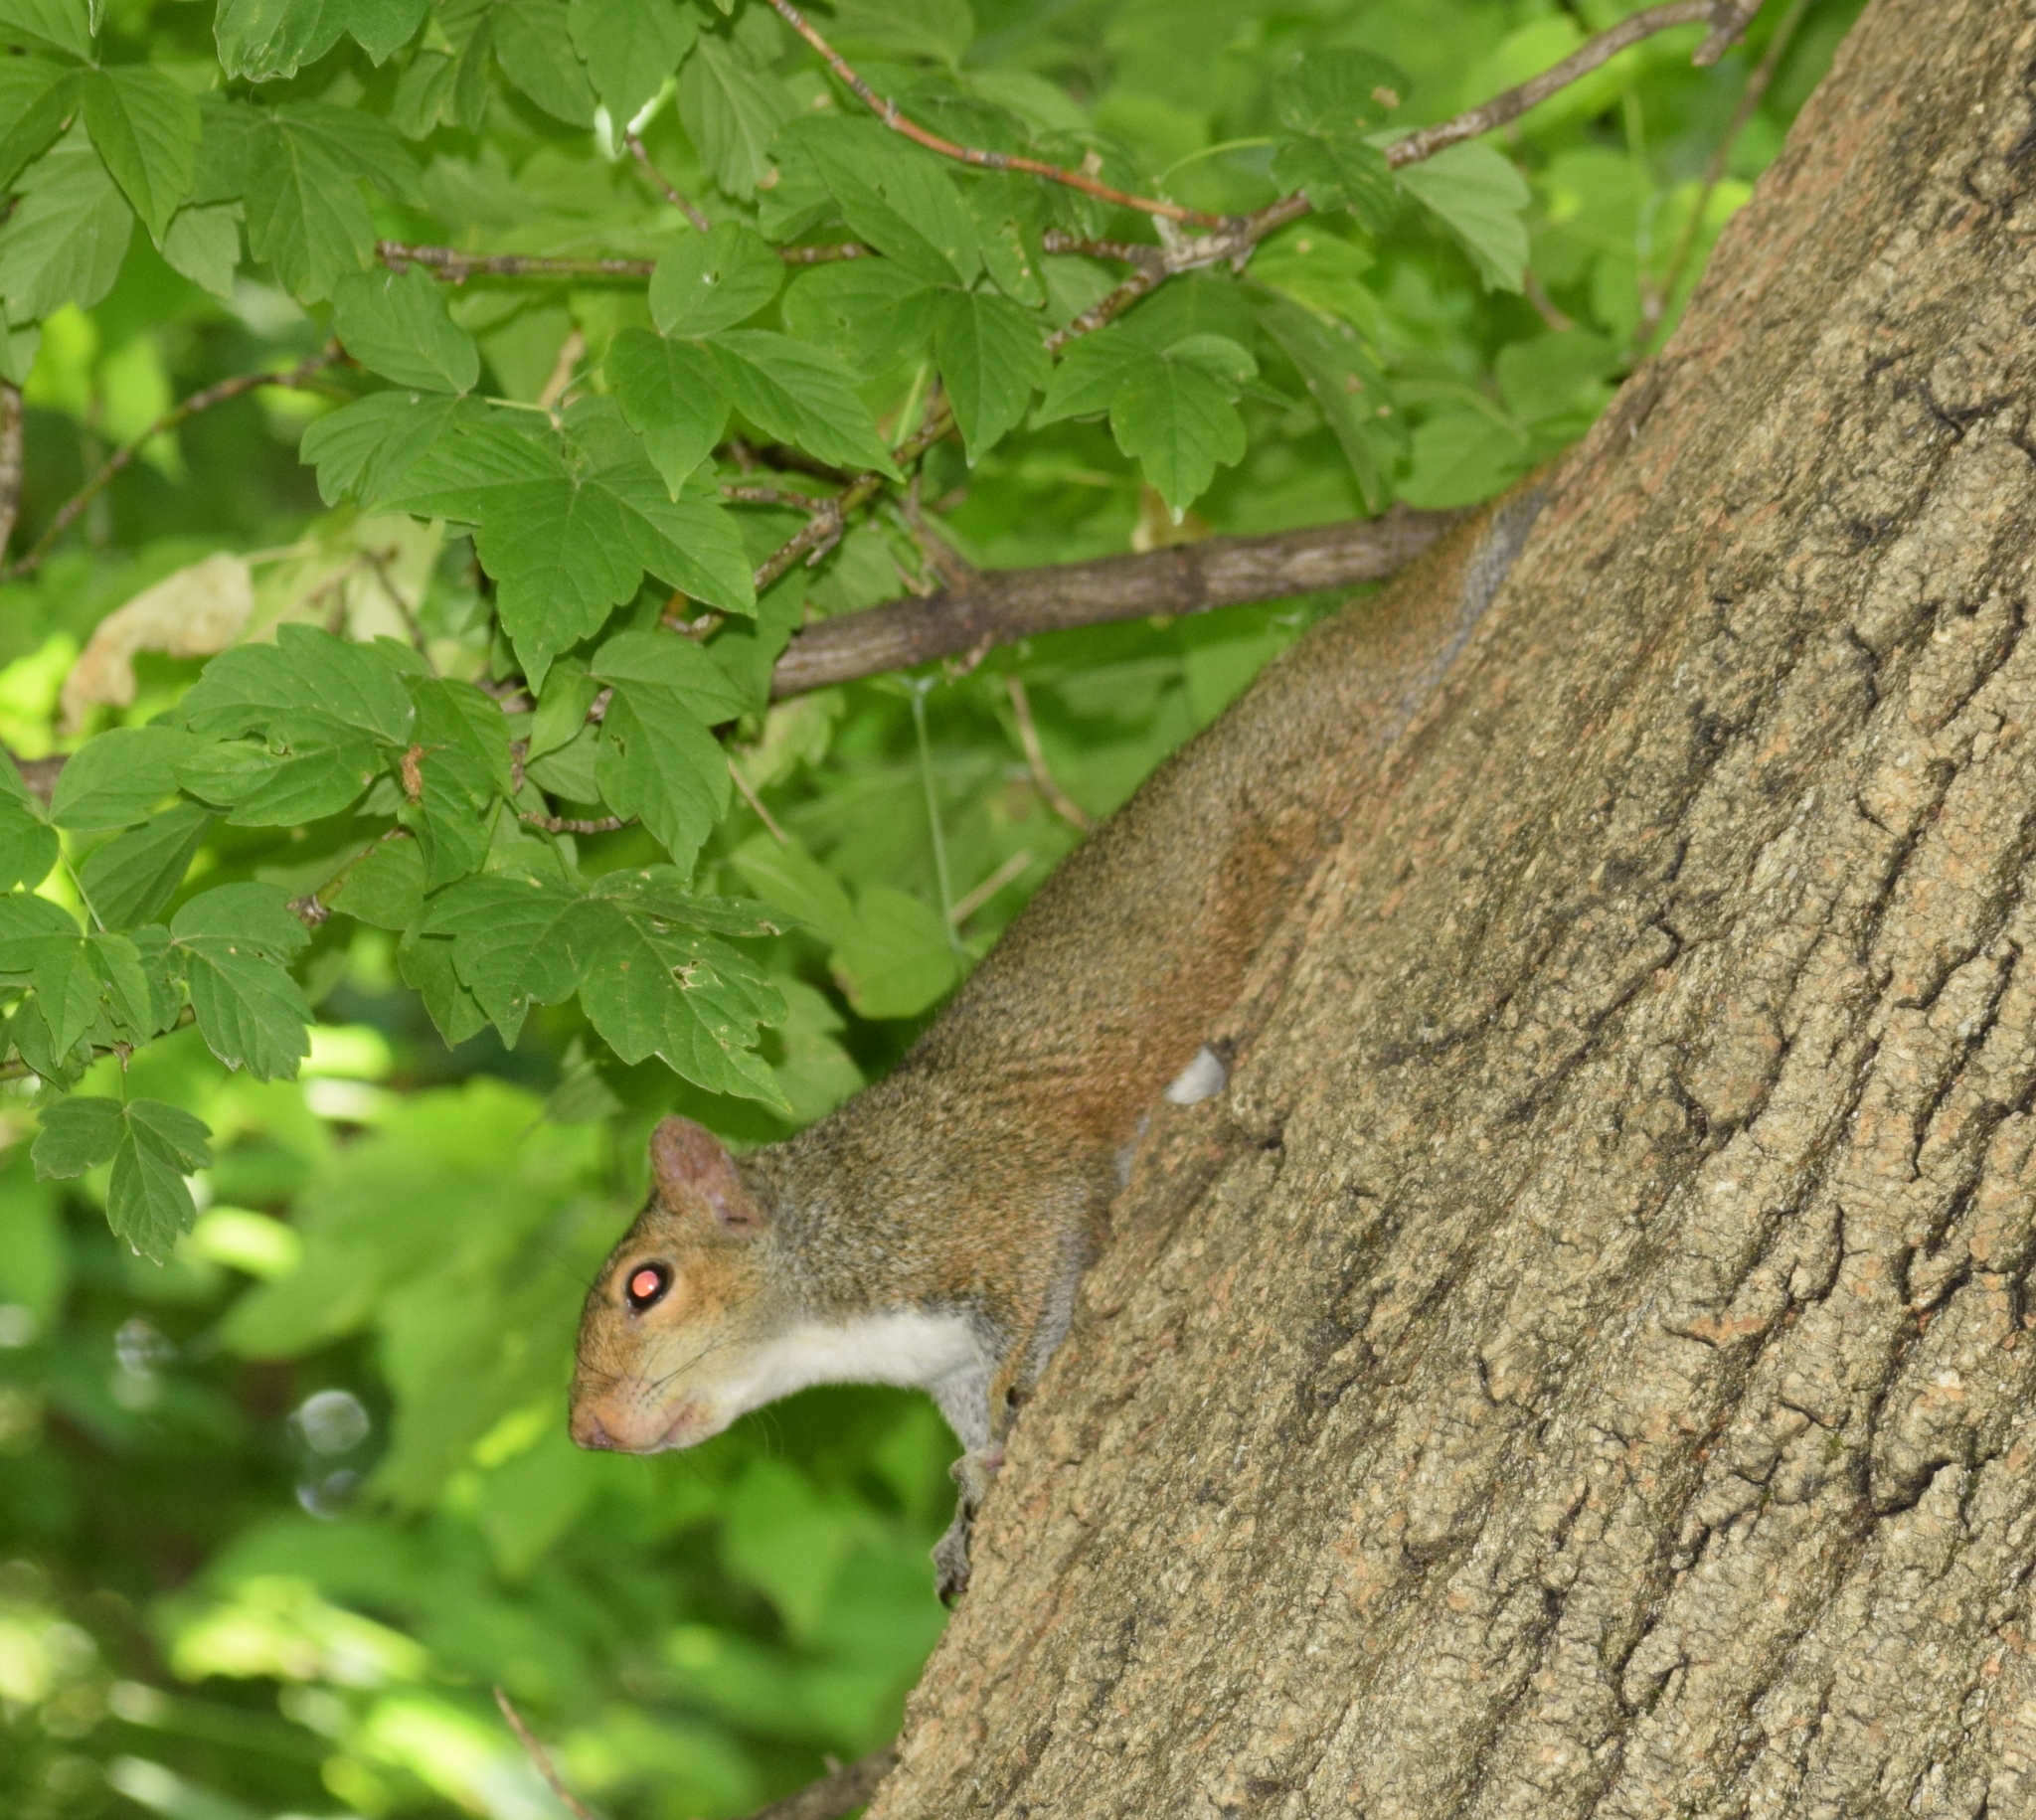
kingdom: Animalia
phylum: Chordata
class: Mammalia
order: Rodentia
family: Sciuridae
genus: Sciurus
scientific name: Sciurus carolinensis
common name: Eastern gray squirrel
